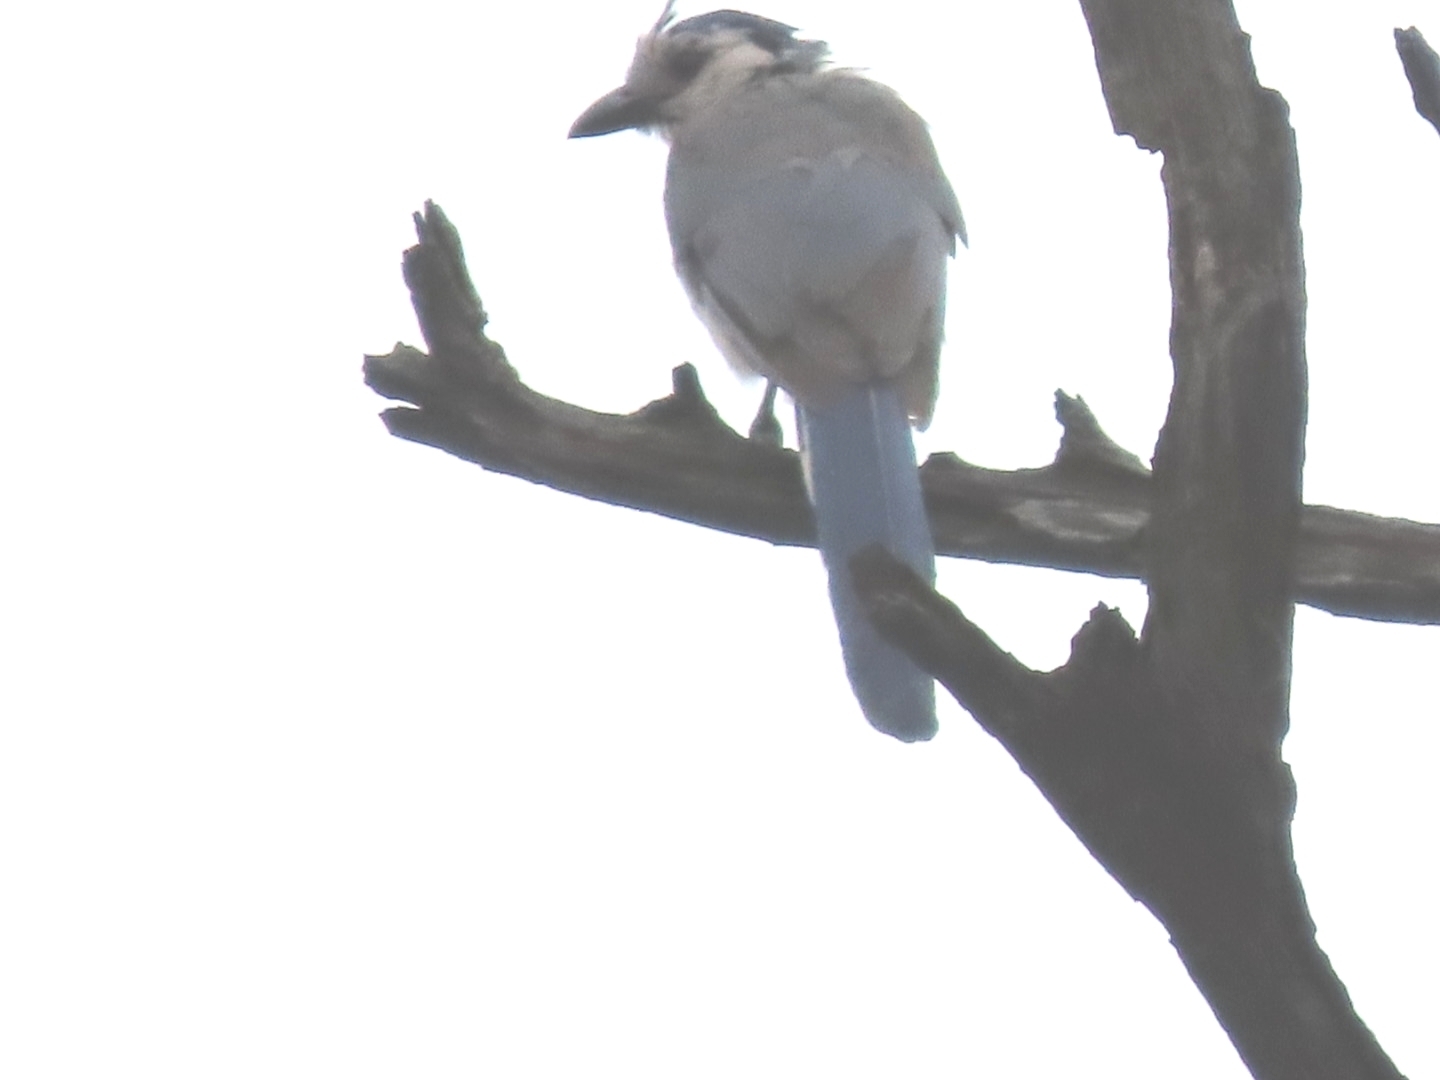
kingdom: Animalia
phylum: Chordata
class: Aves
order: Passeriformes
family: Corvidae
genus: Calocitta
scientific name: Calocitta formosa
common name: White-throated magpie-jay
